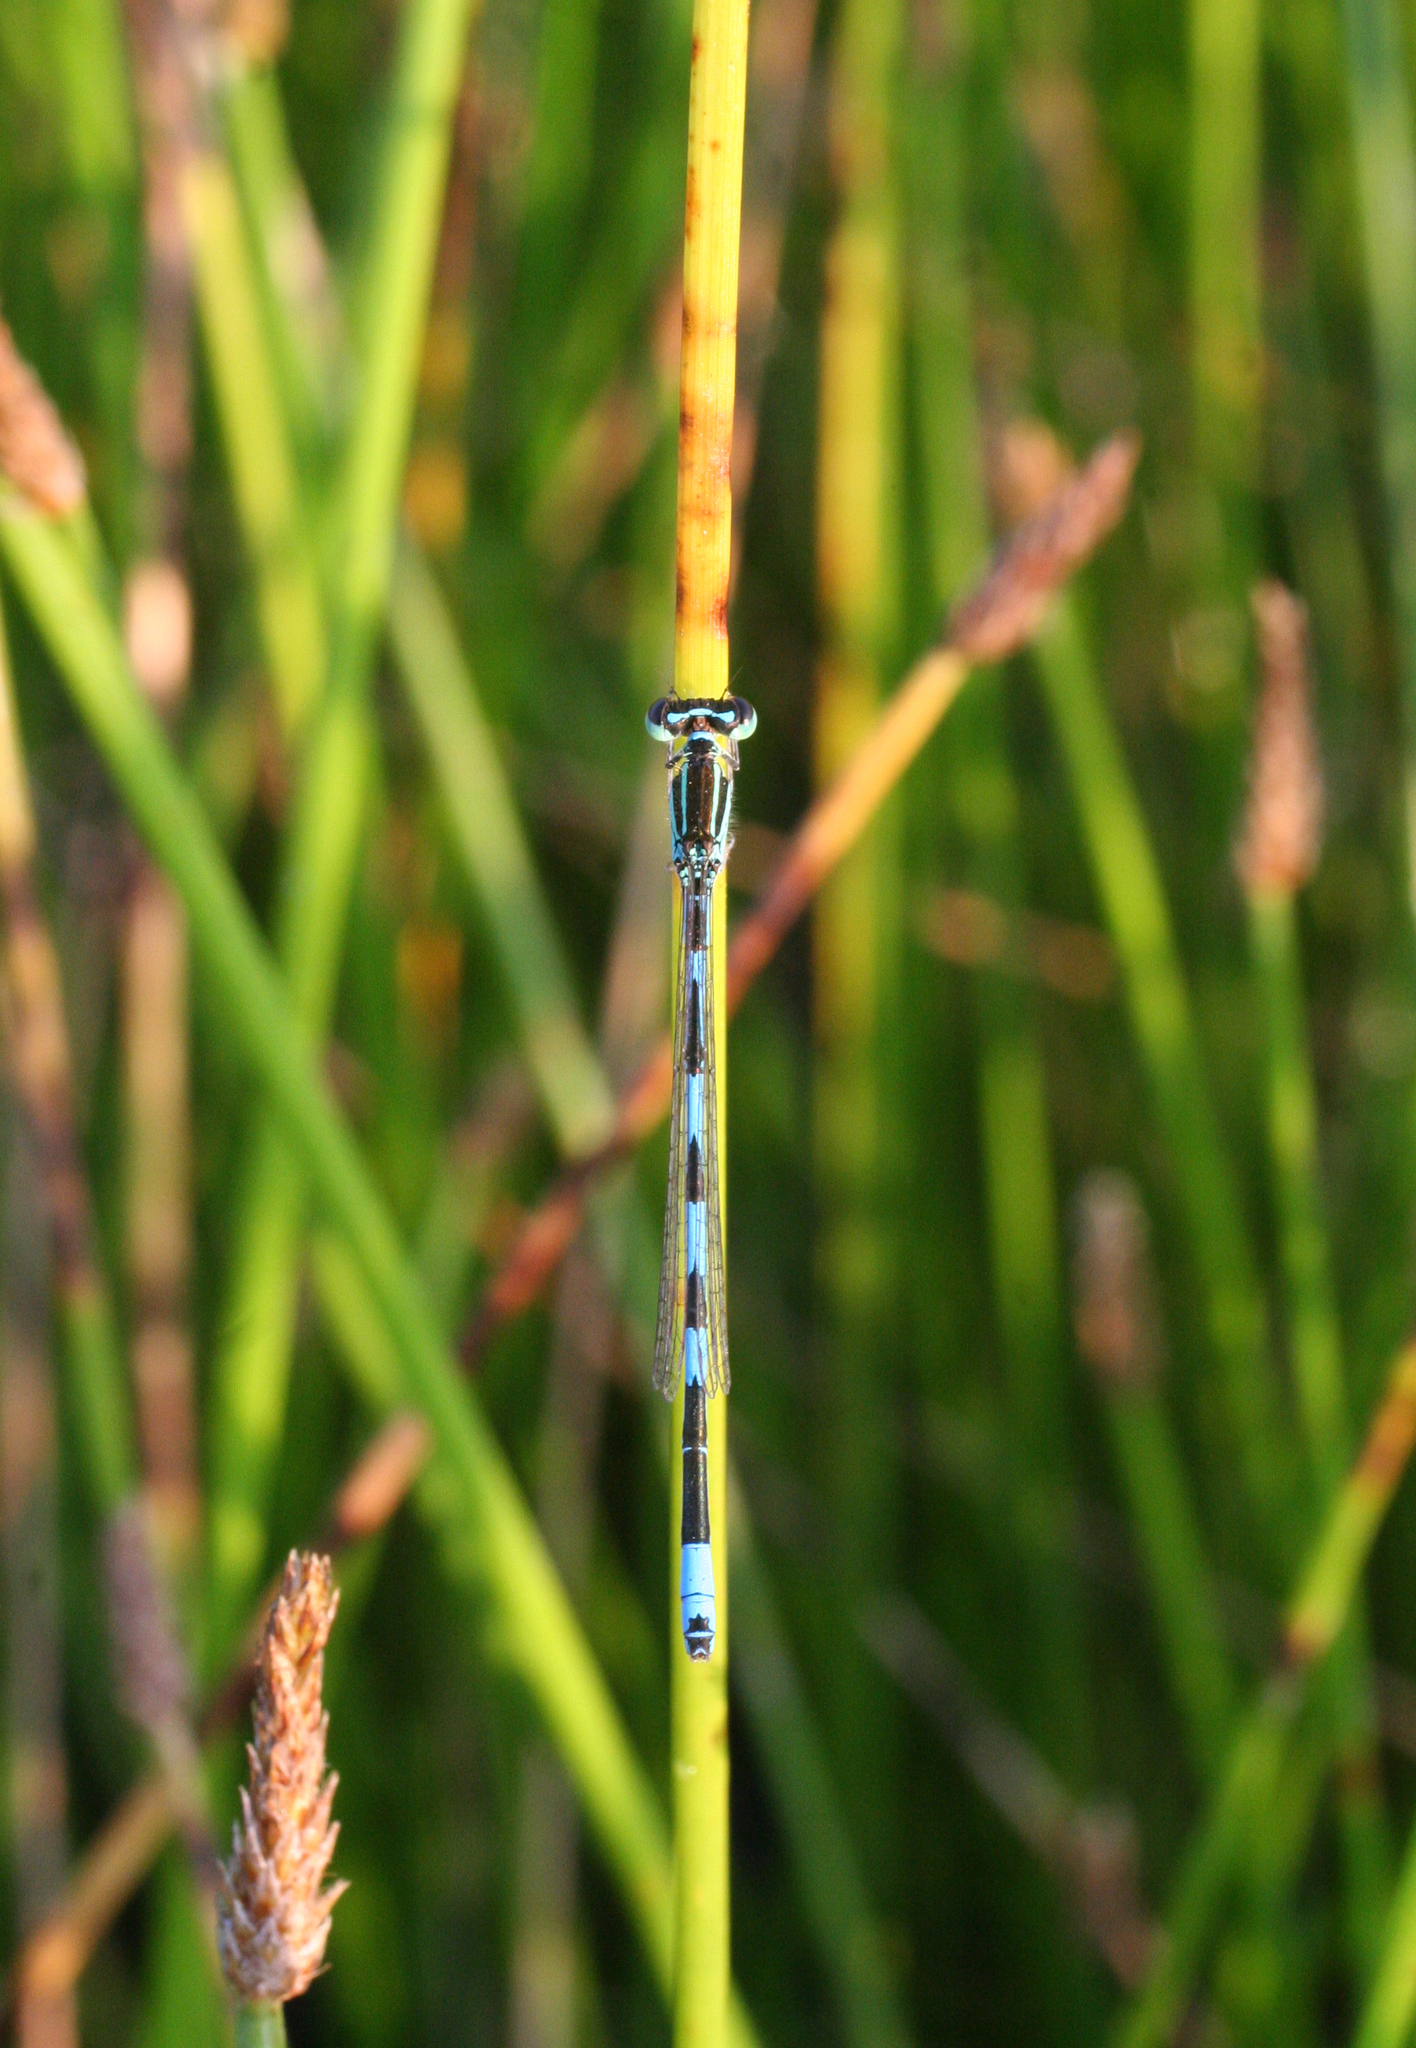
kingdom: Animalia
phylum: Arthropoda
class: Insecta
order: Odonata
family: Coenagrionidae
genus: Coenagrion
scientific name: Coenagrion ecornutum
